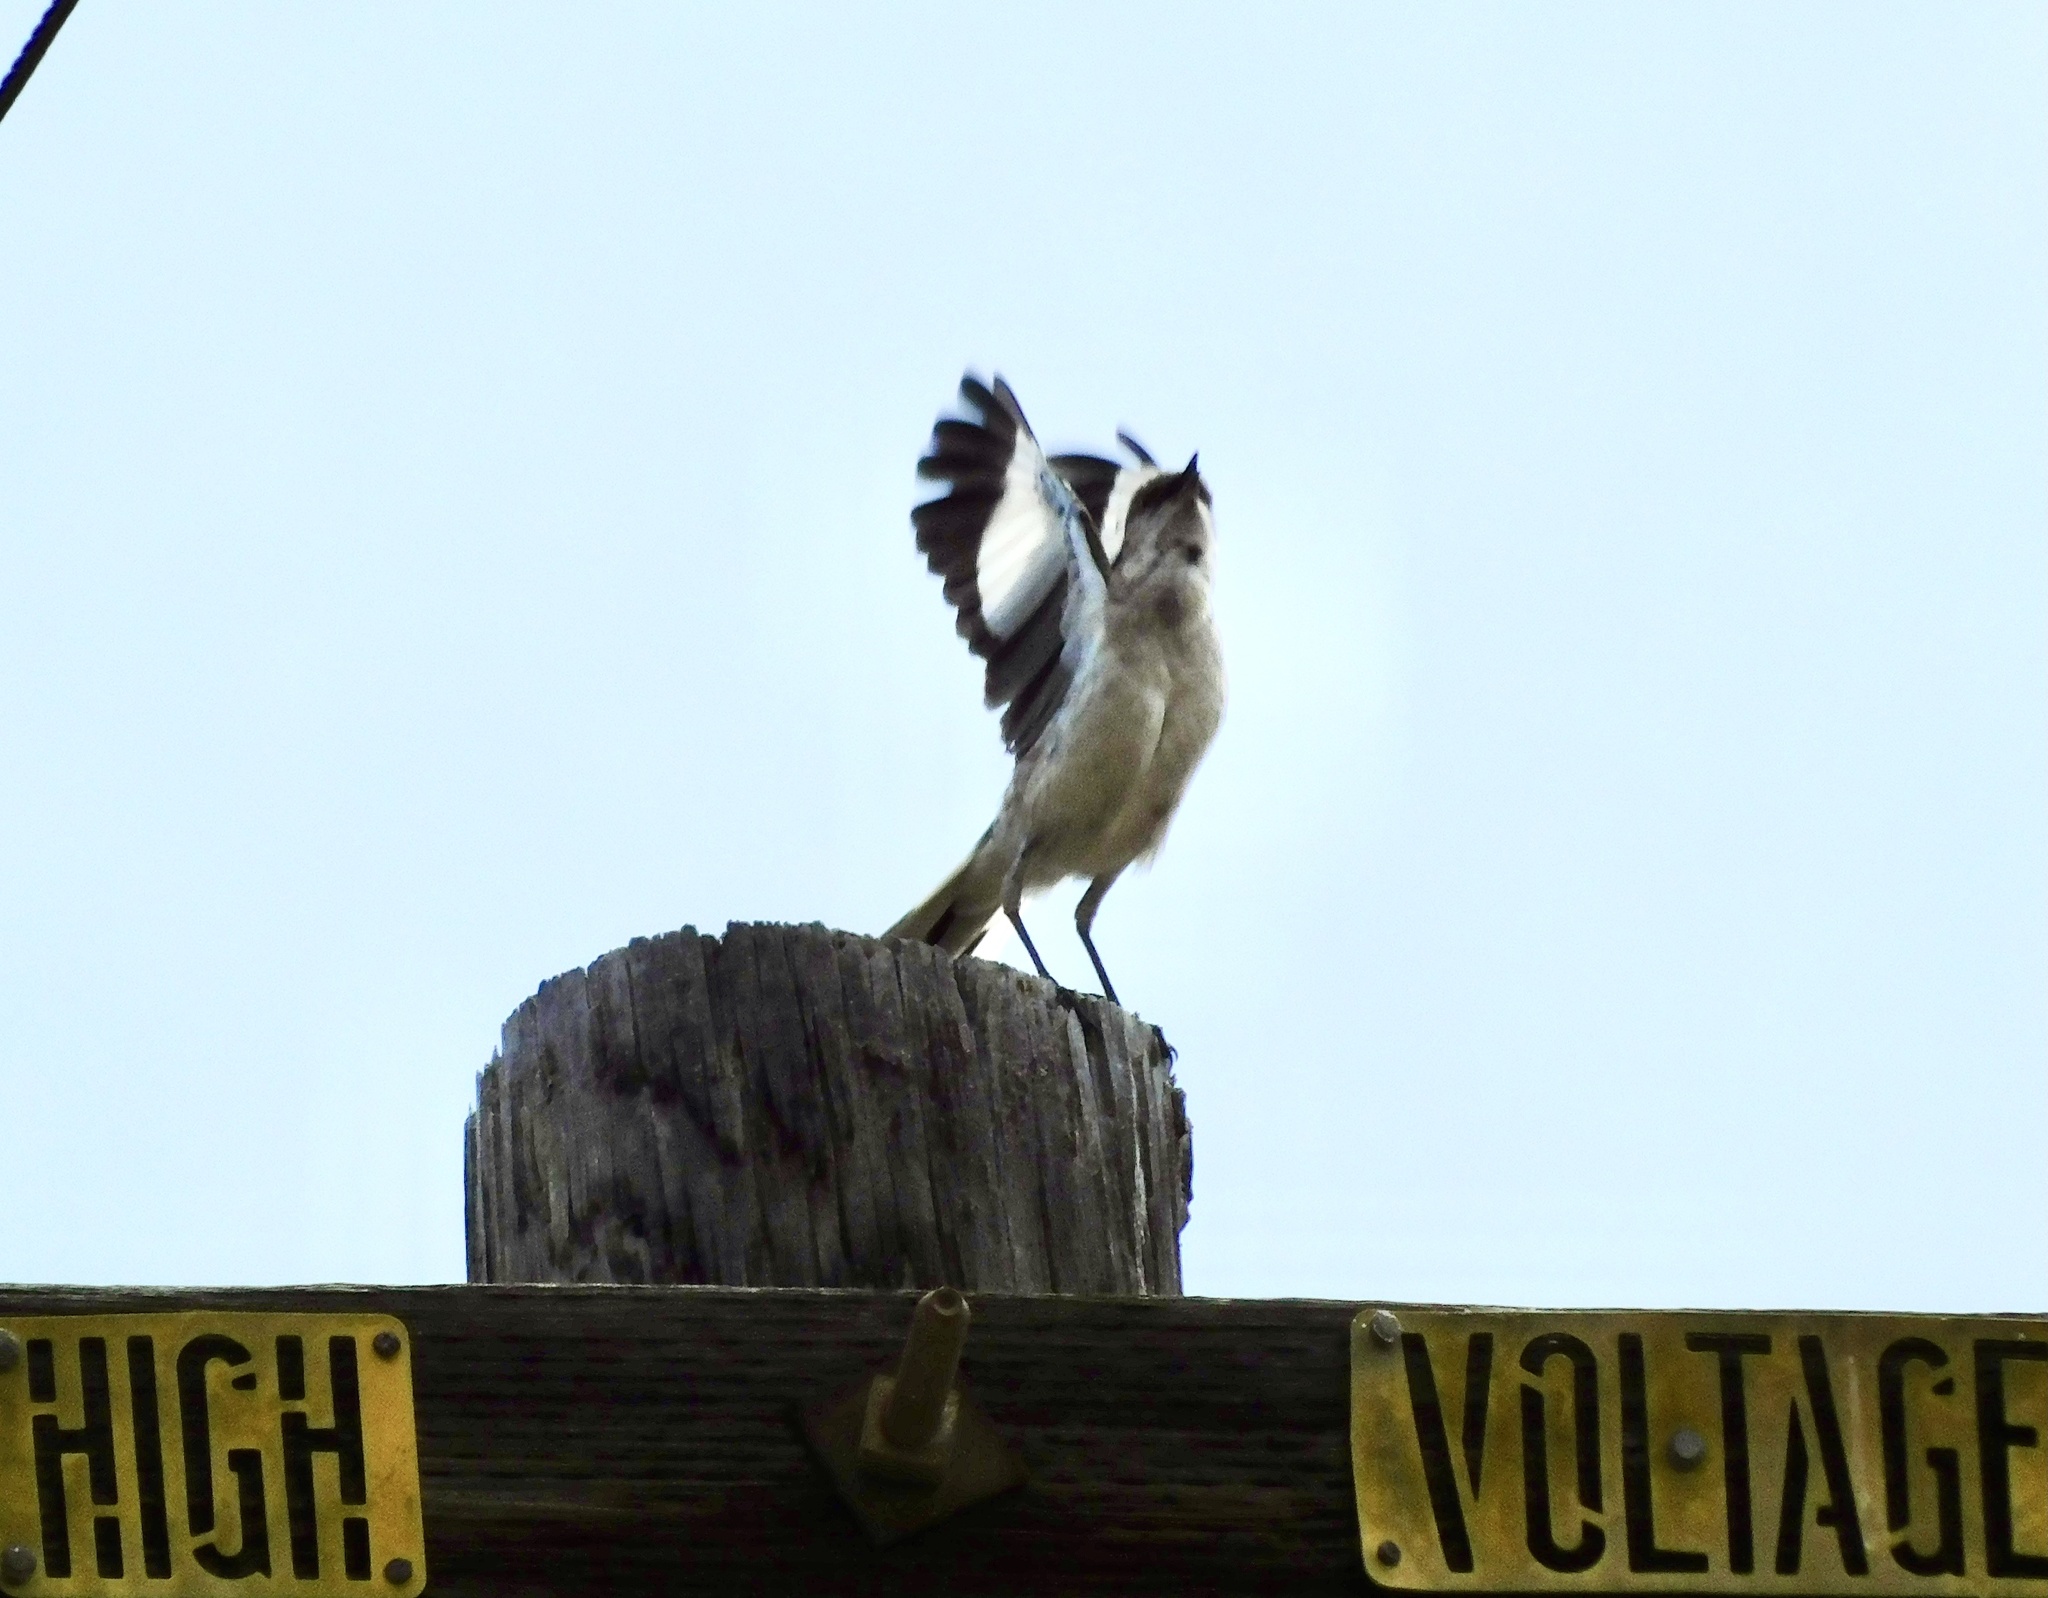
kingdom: Animalia
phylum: Chordata
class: Aves
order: Passeriformes
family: Mimidae
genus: Mimus
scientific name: Mimus polyglottos
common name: Northern mockingbird
